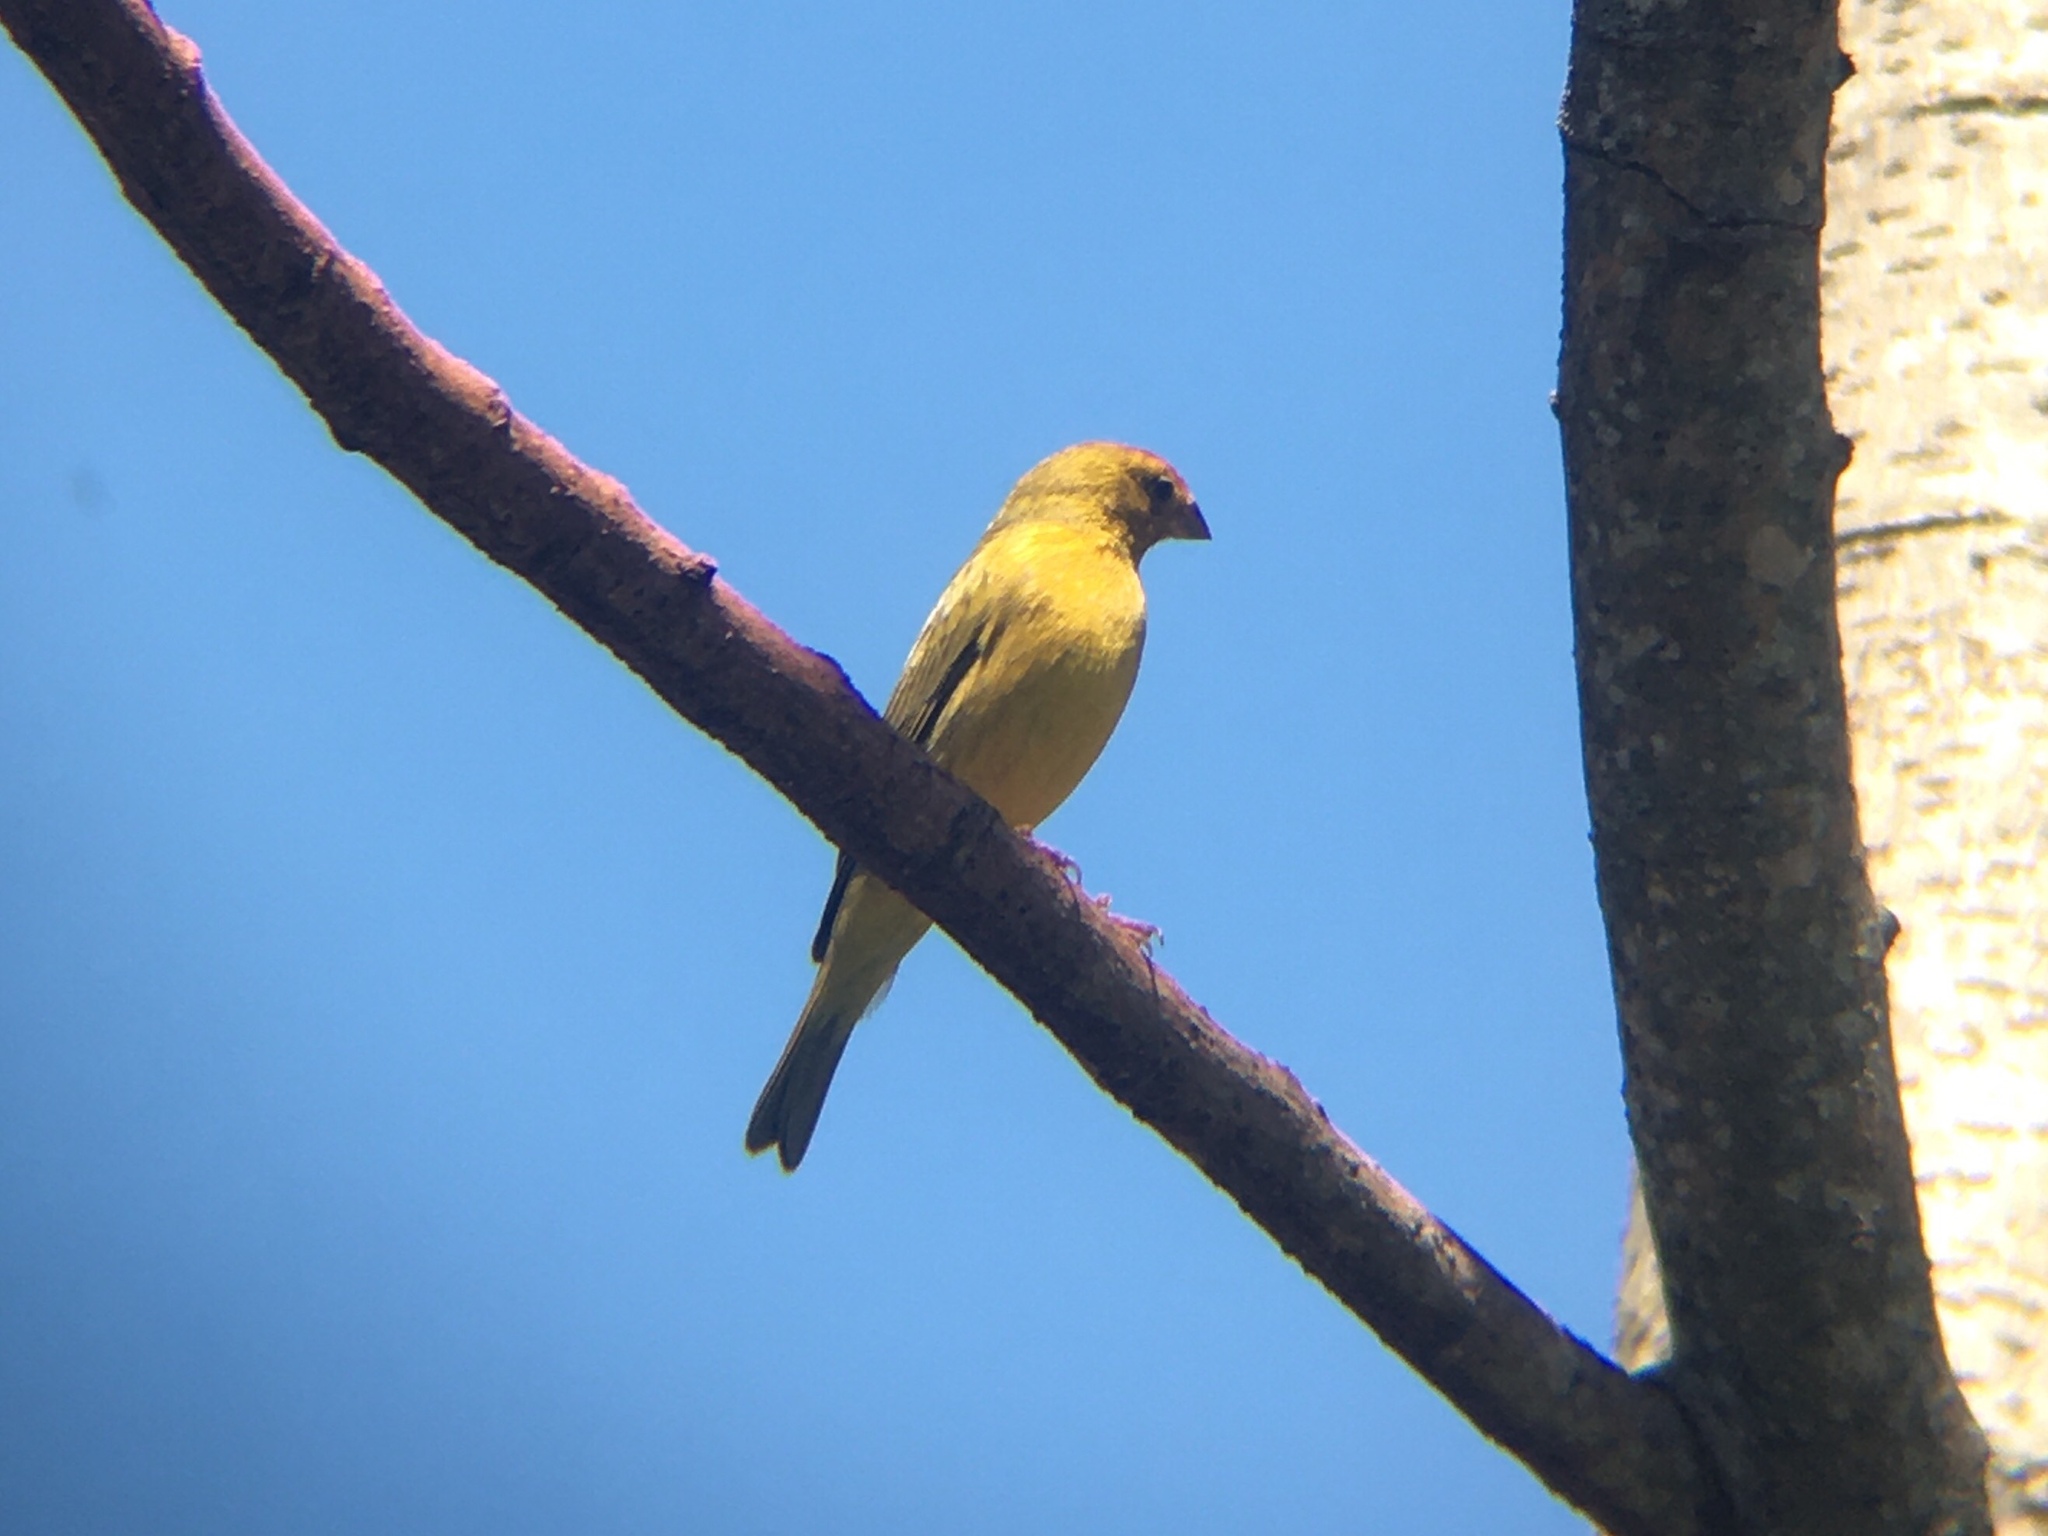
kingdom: Animalia
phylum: Chordata
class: Aves
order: Passeriformes
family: Thraupidae
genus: Sicalis
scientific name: Sicalis flaveola
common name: Saffron finch
